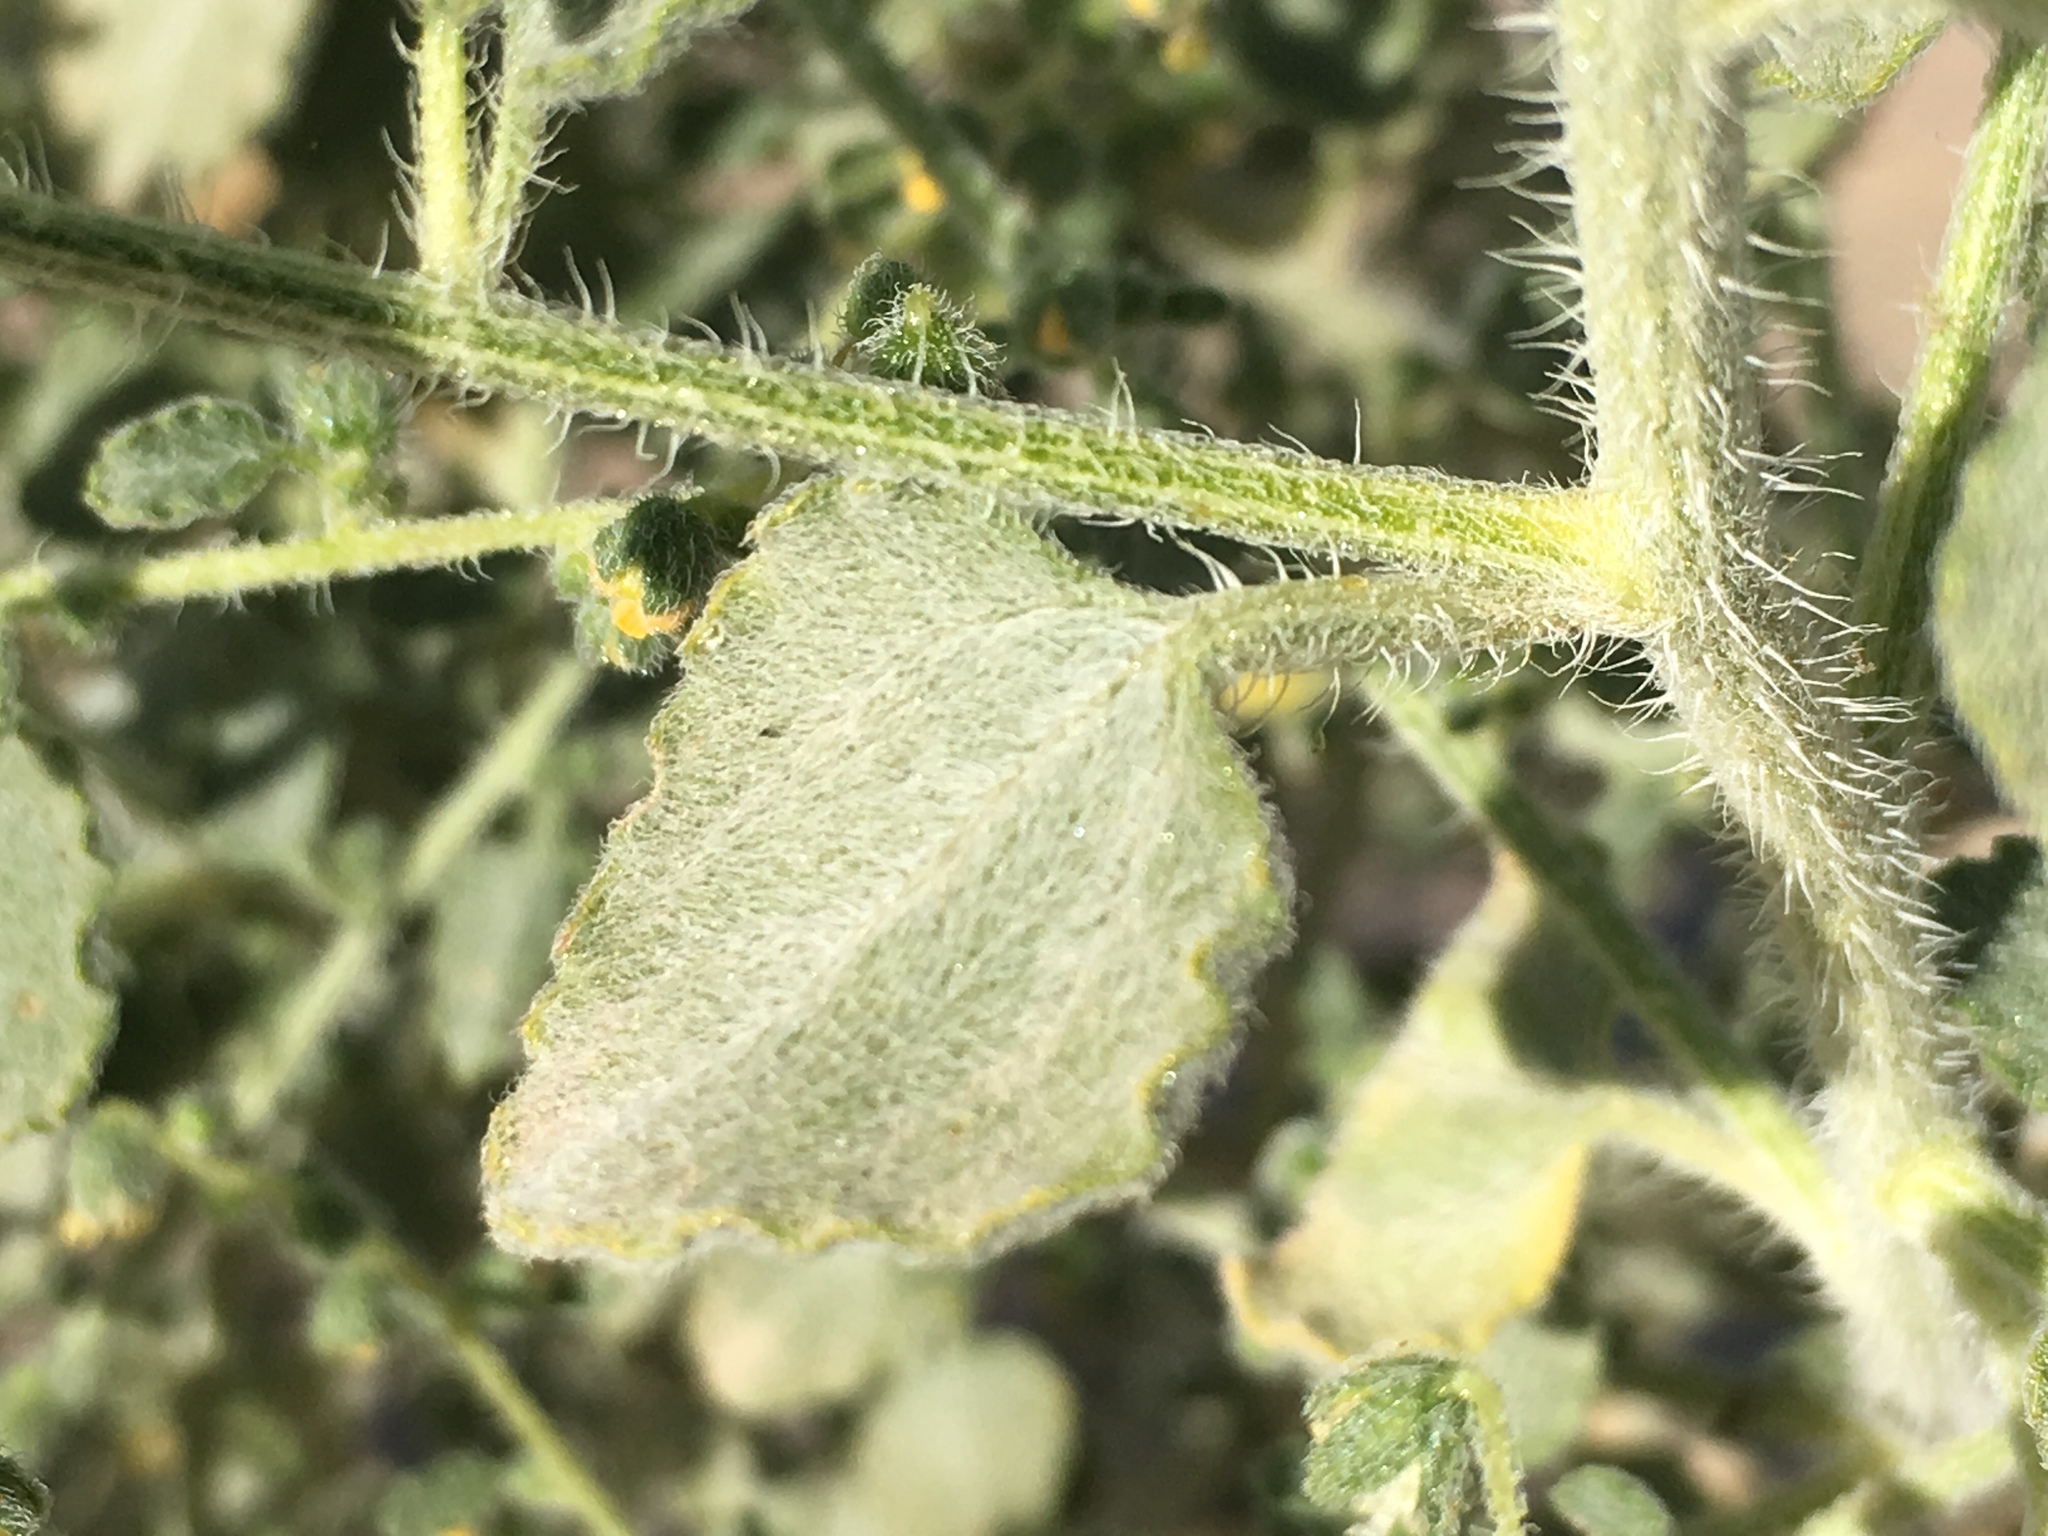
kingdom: Plantae
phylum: Tracheophyta
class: Magnoliopsida
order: Asterales
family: Asteraceae
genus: Dicoria
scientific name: Dicoria canescens
